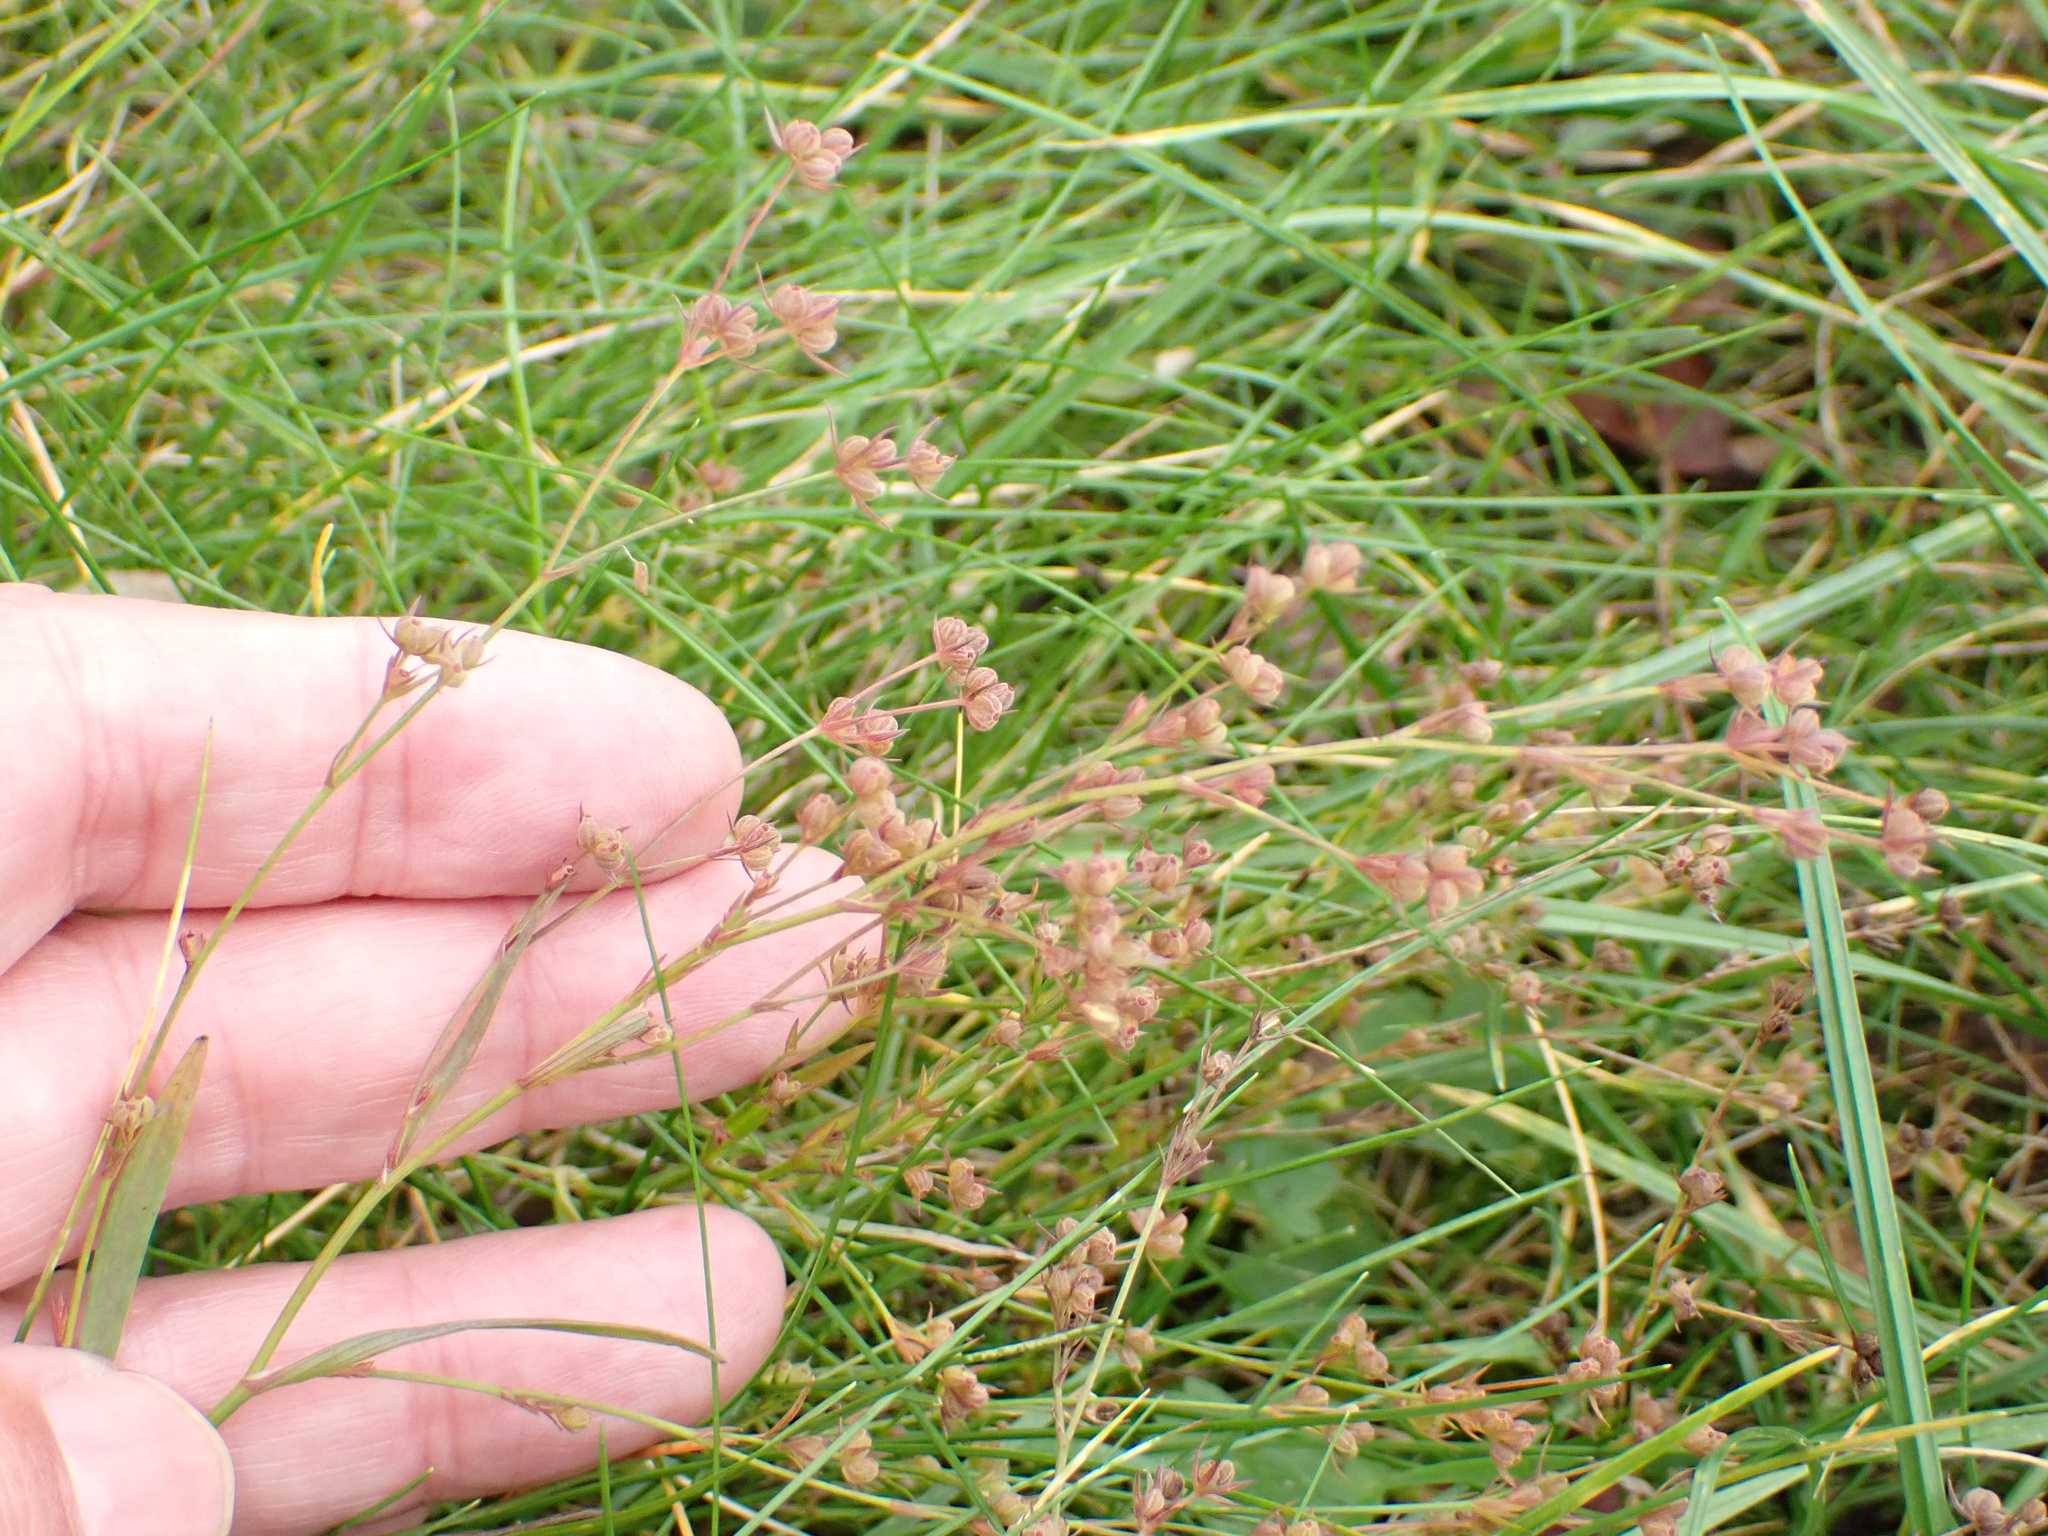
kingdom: Plantae
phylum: Tracheophyta
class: Magnoliopsida
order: Apiales
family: Apiaceae
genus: Bupleurum
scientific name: Bupleurum tenuissimum
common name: Slender hare's-ear
